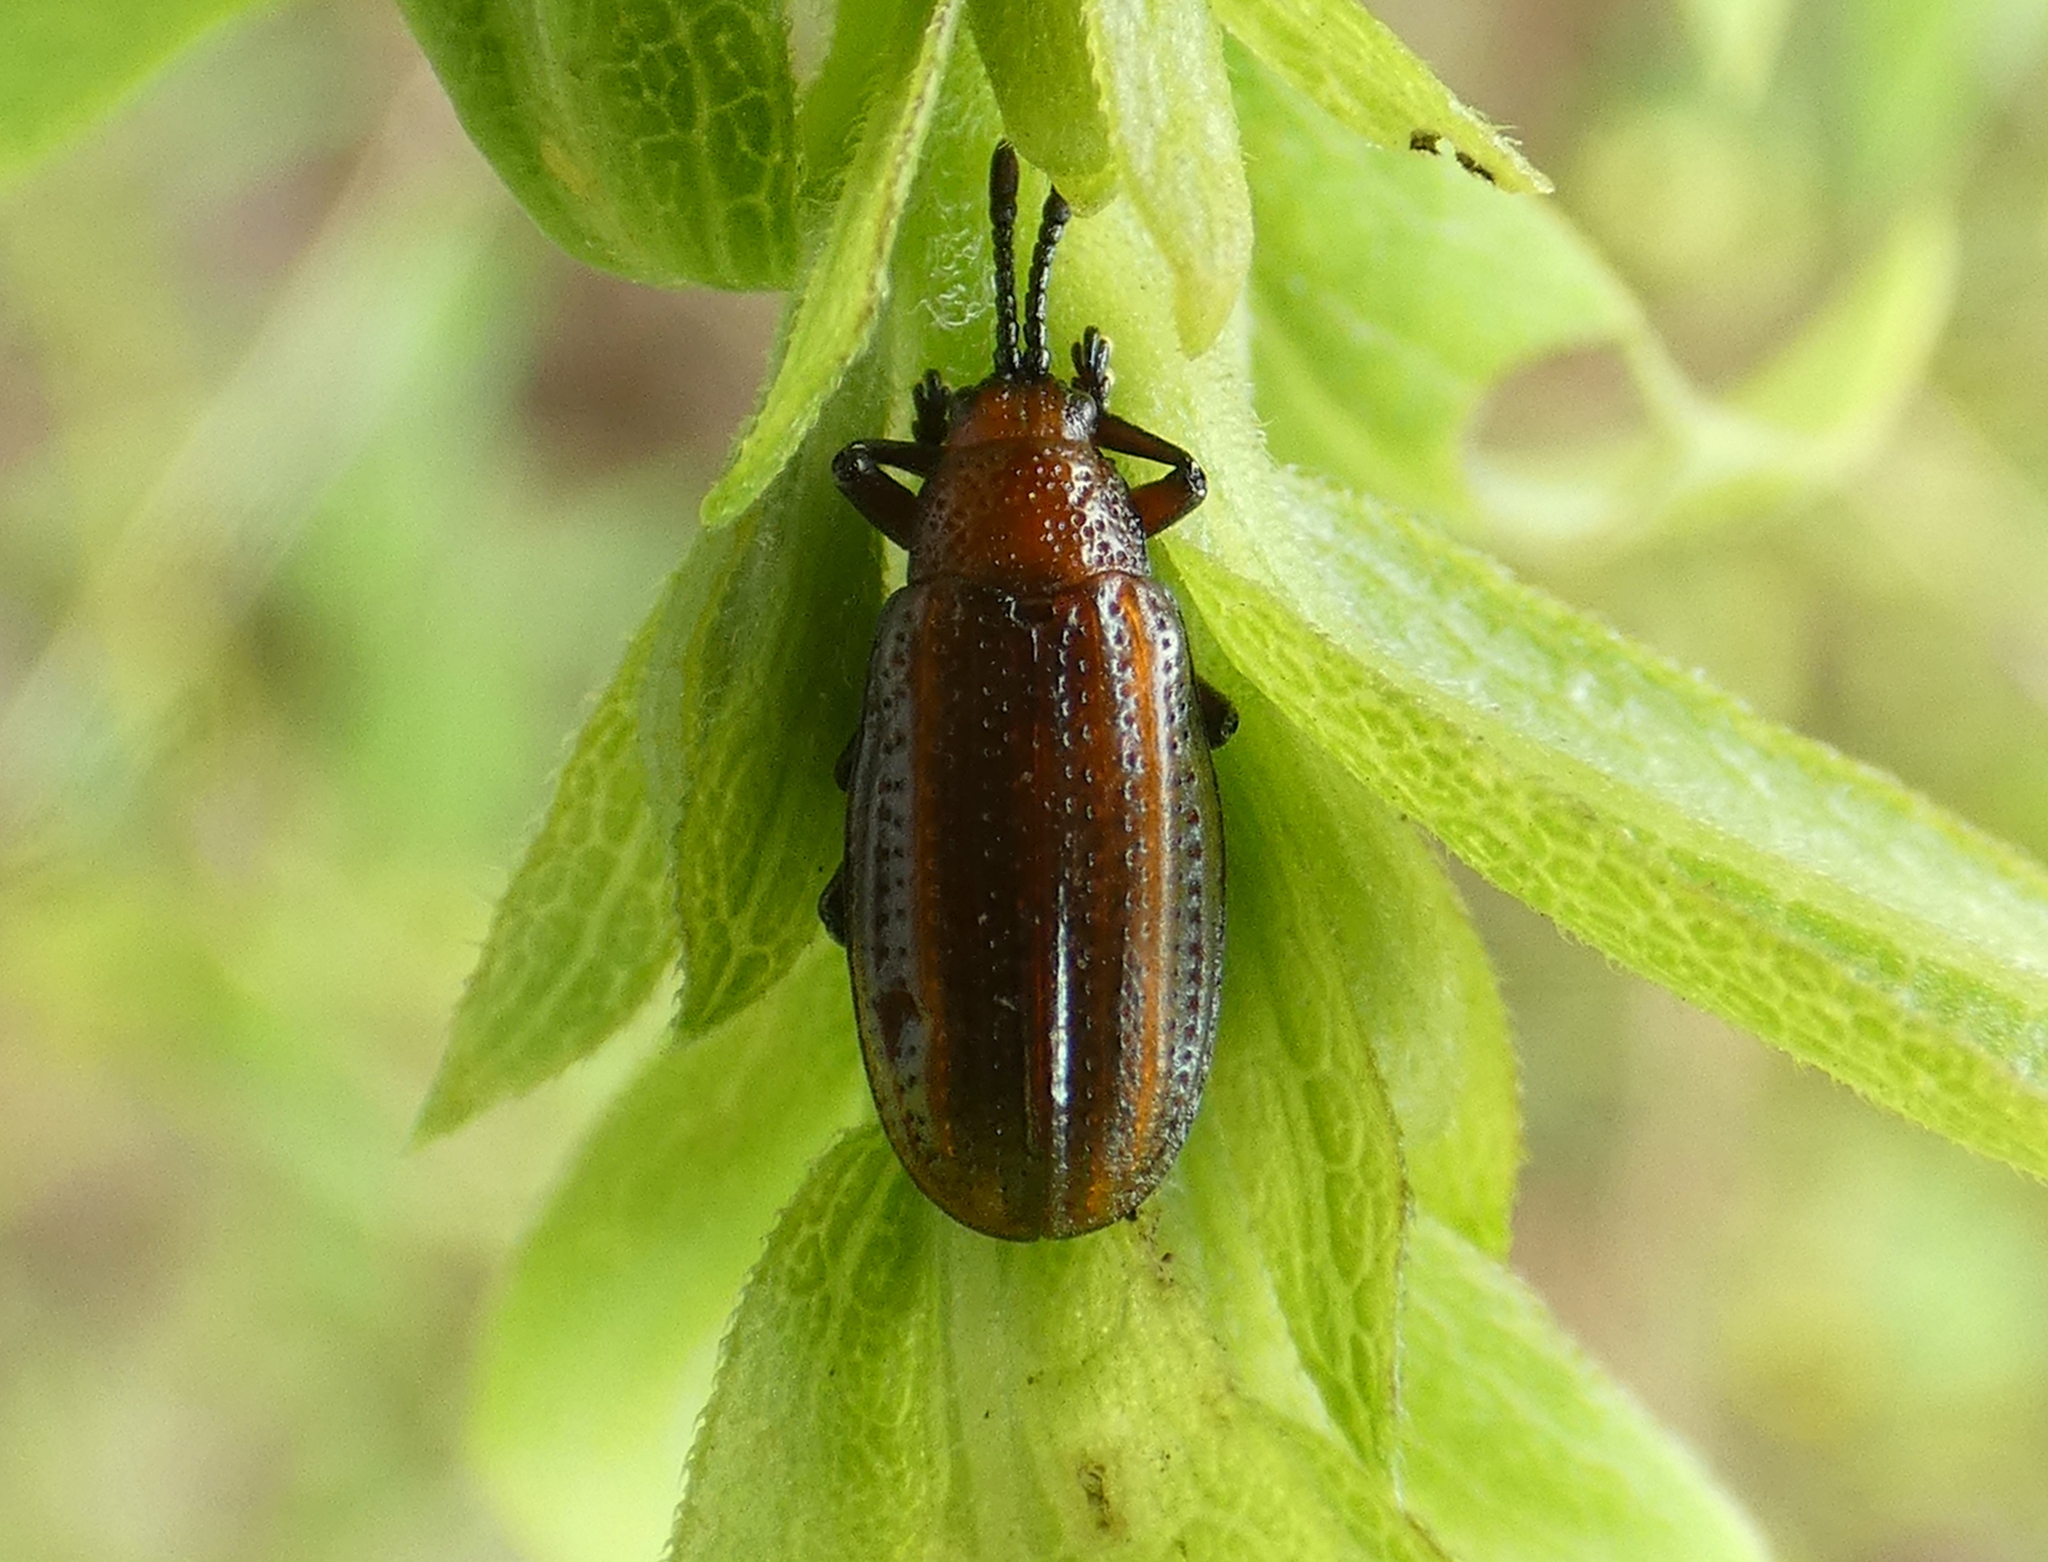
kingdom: Animalia
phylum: Arthropoda
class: Insecta
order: Coleoptera
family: Chrysomelidae
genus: Microrhopala
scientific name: Microrhopala vittata
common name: Goldenrod leaf miner beetle
